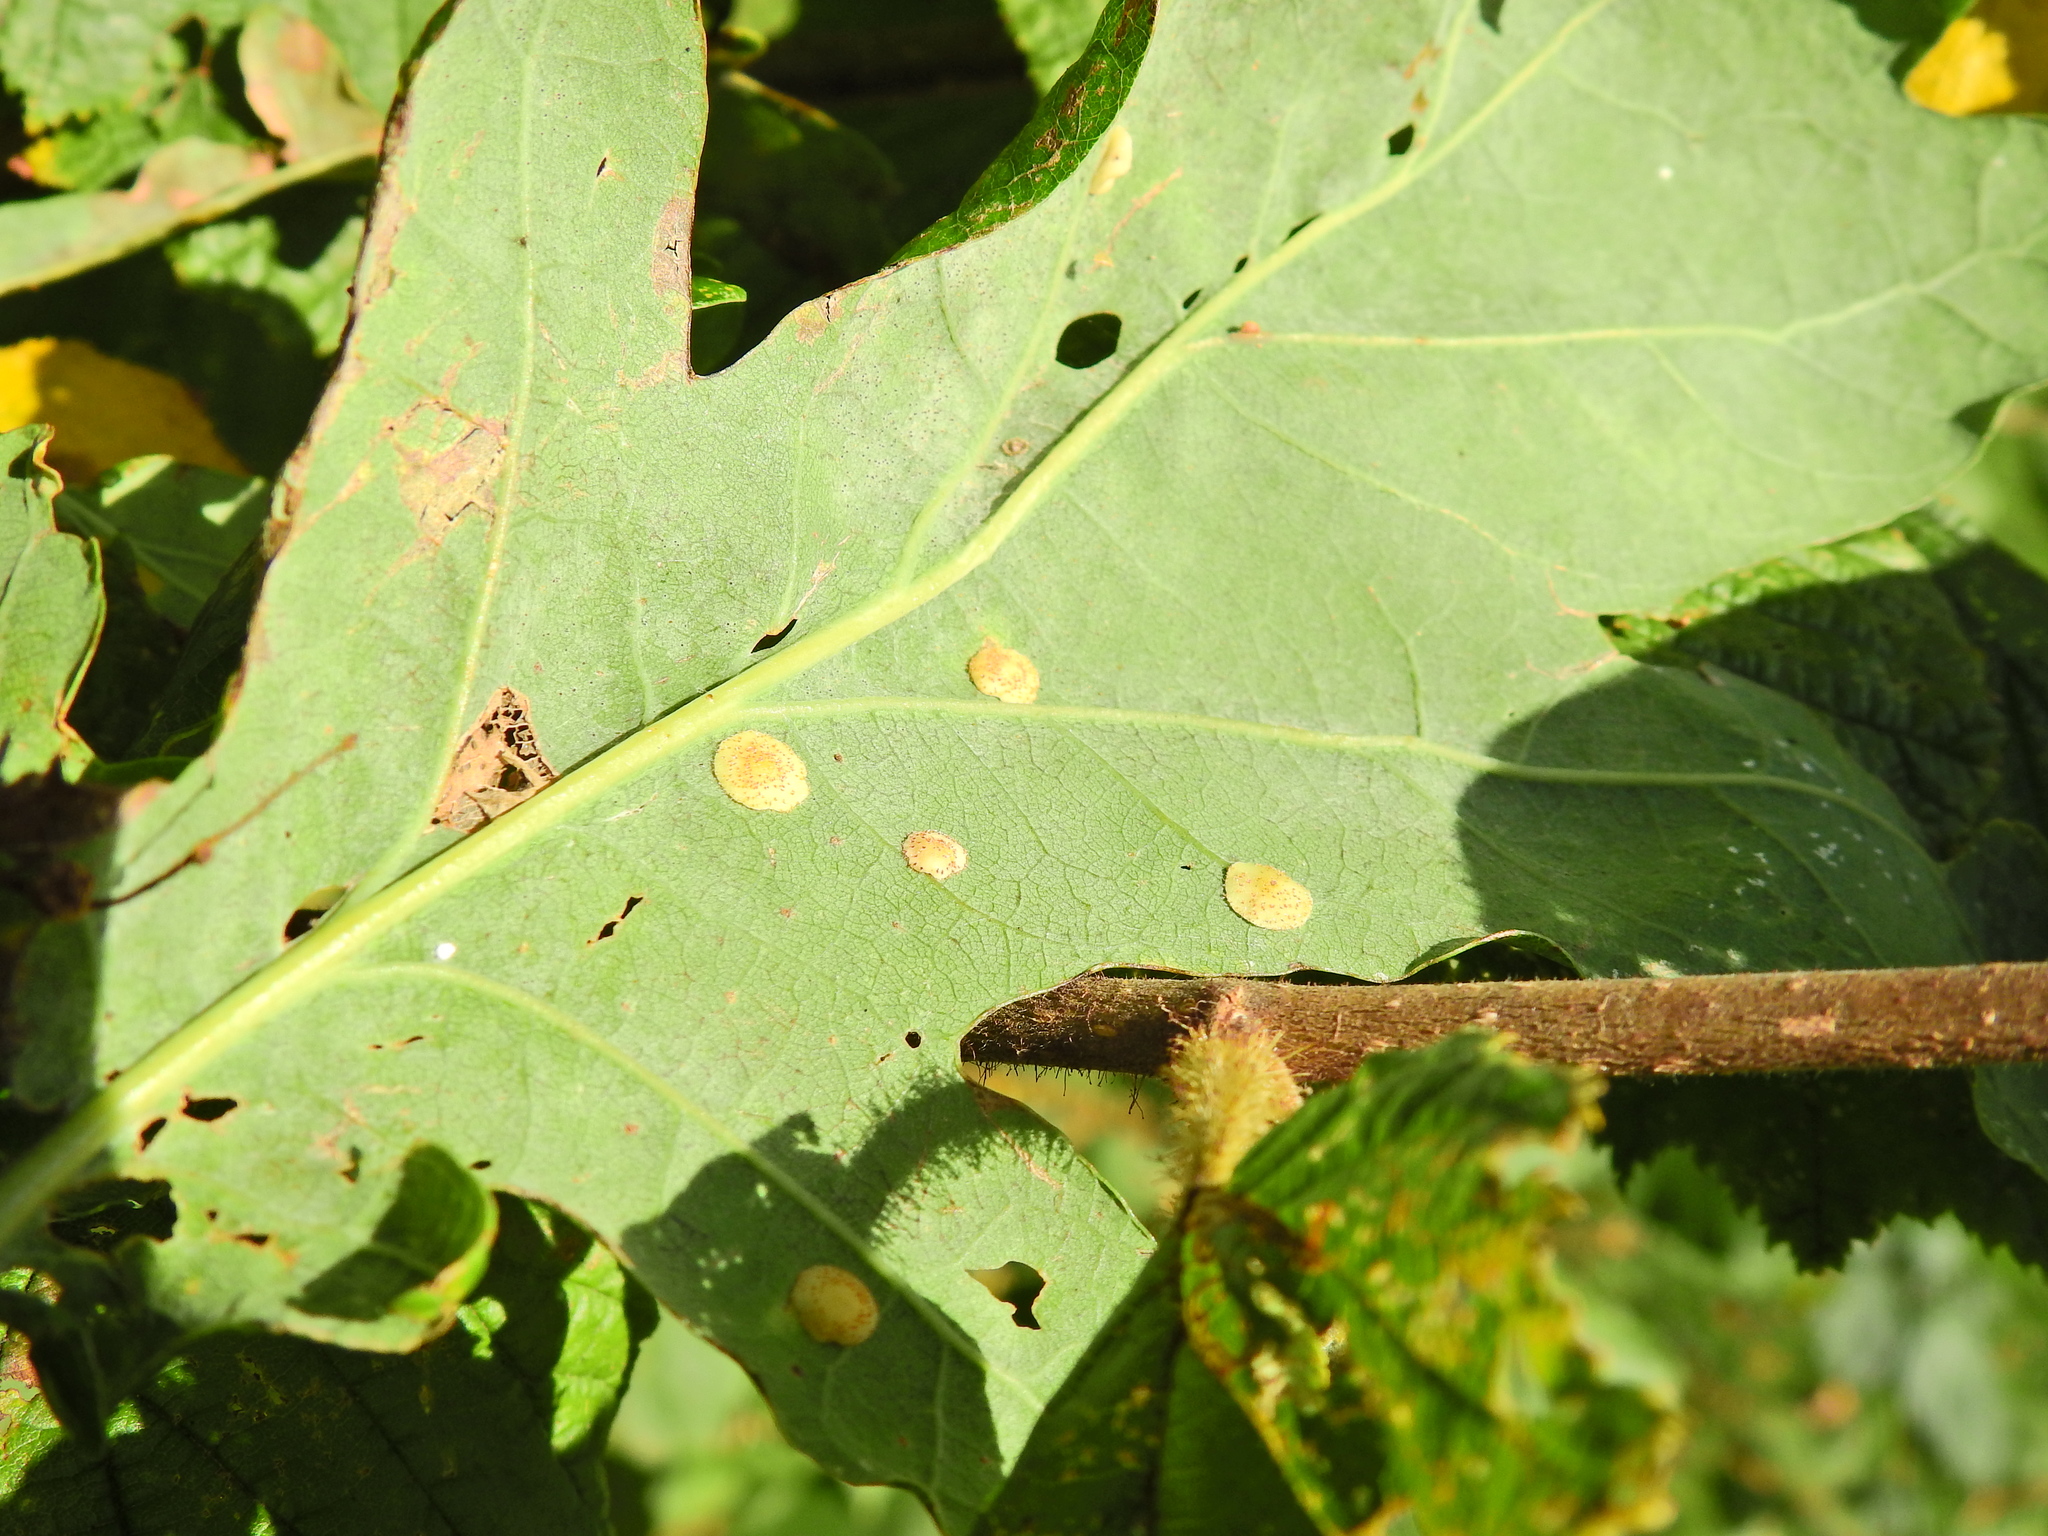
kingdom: Animalia
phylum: Arthropoda
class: Insecta
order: Hymenoptera
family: Cynipidae
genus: Neuroterus
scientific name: Neuroterus quercusbaccarum
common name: Common spangle gall
